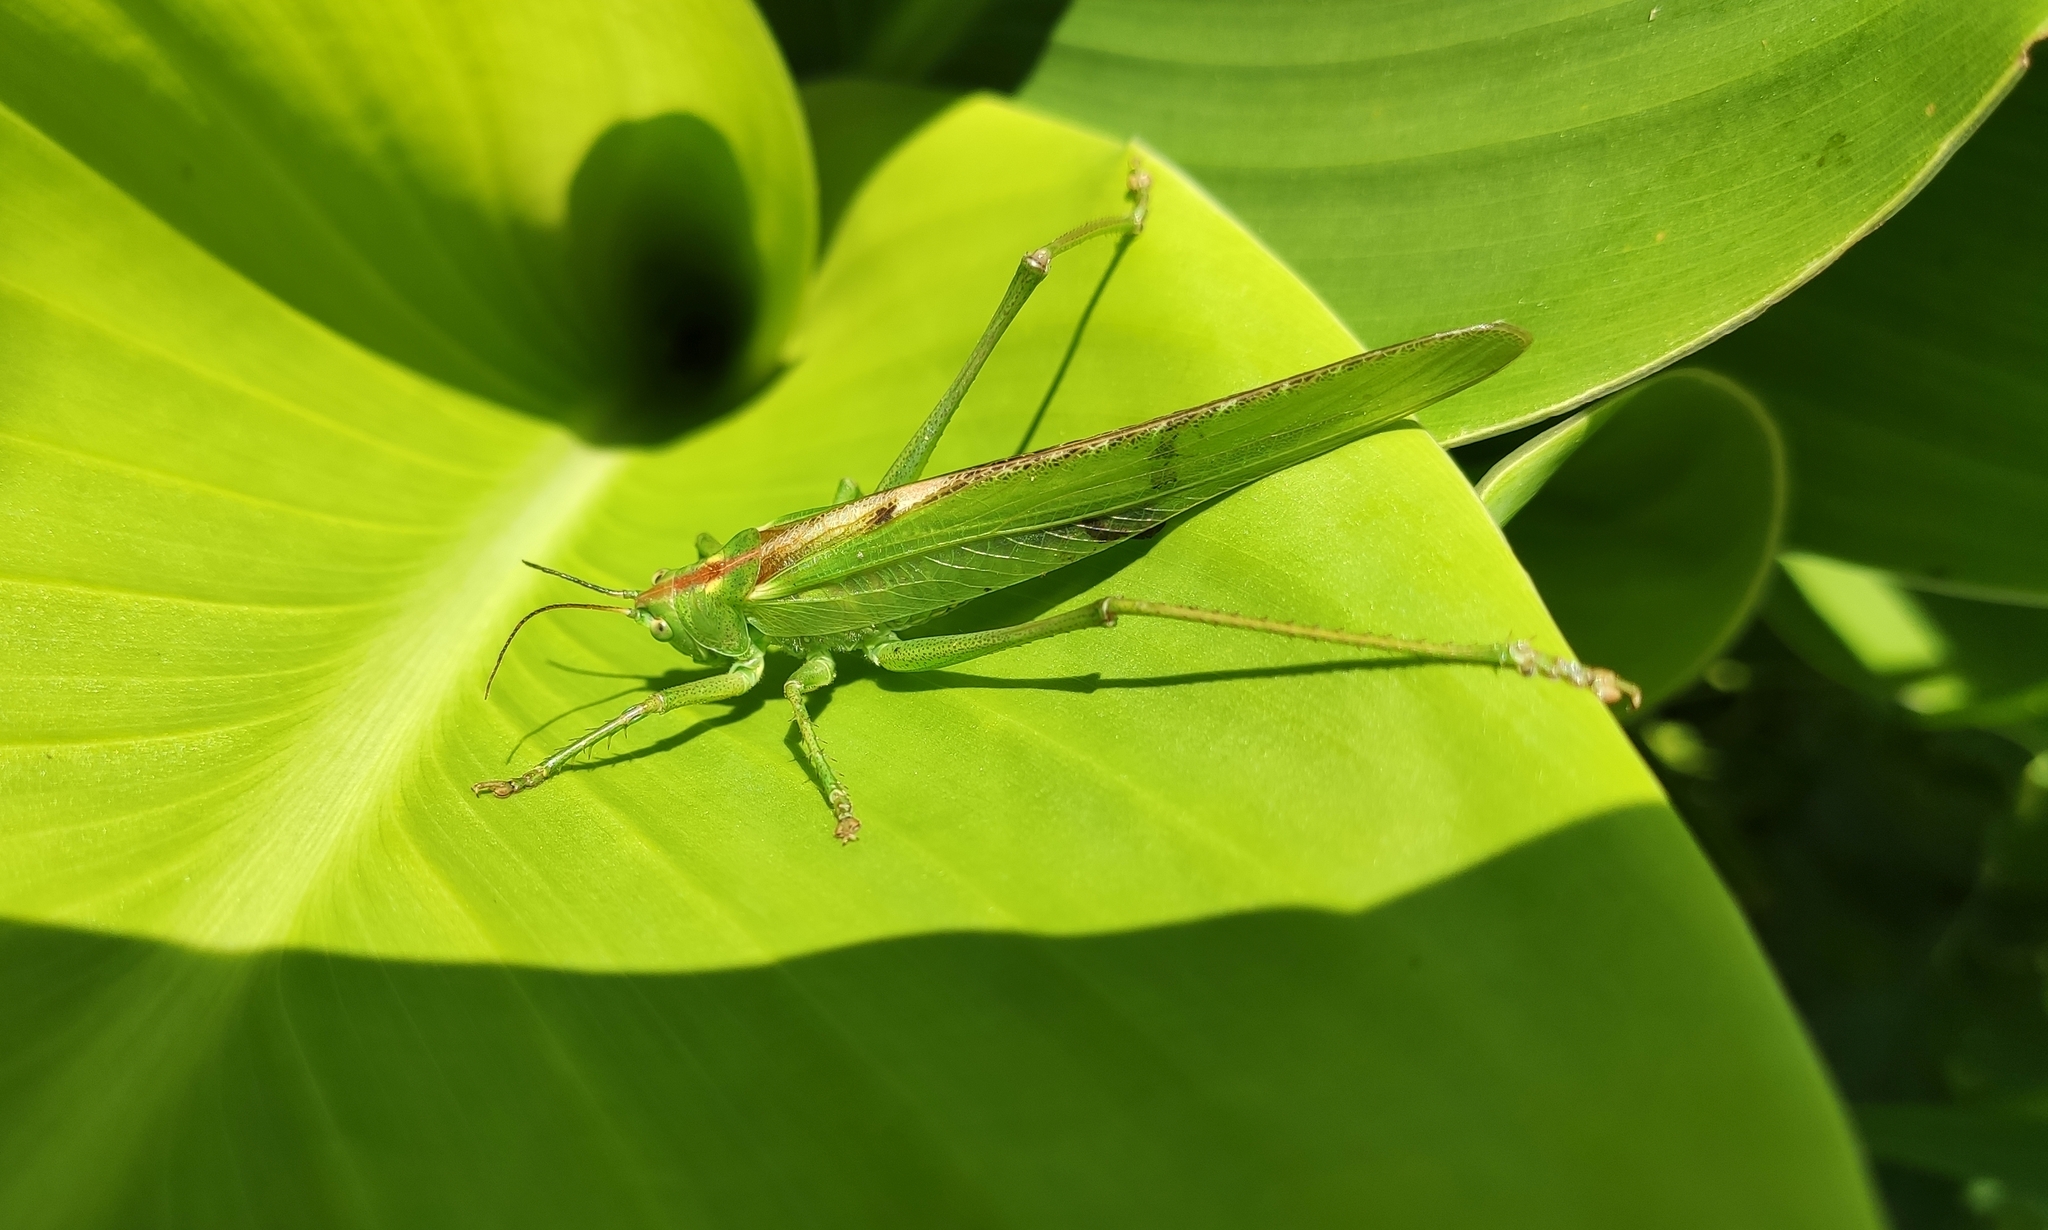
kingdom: Animalia
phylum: Arthropoda
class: Insecta
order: Orthoptera
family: Tettigoniidae
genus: Tettigonia
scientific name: Tettigonia viridissima
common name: Great green bush-cricket
